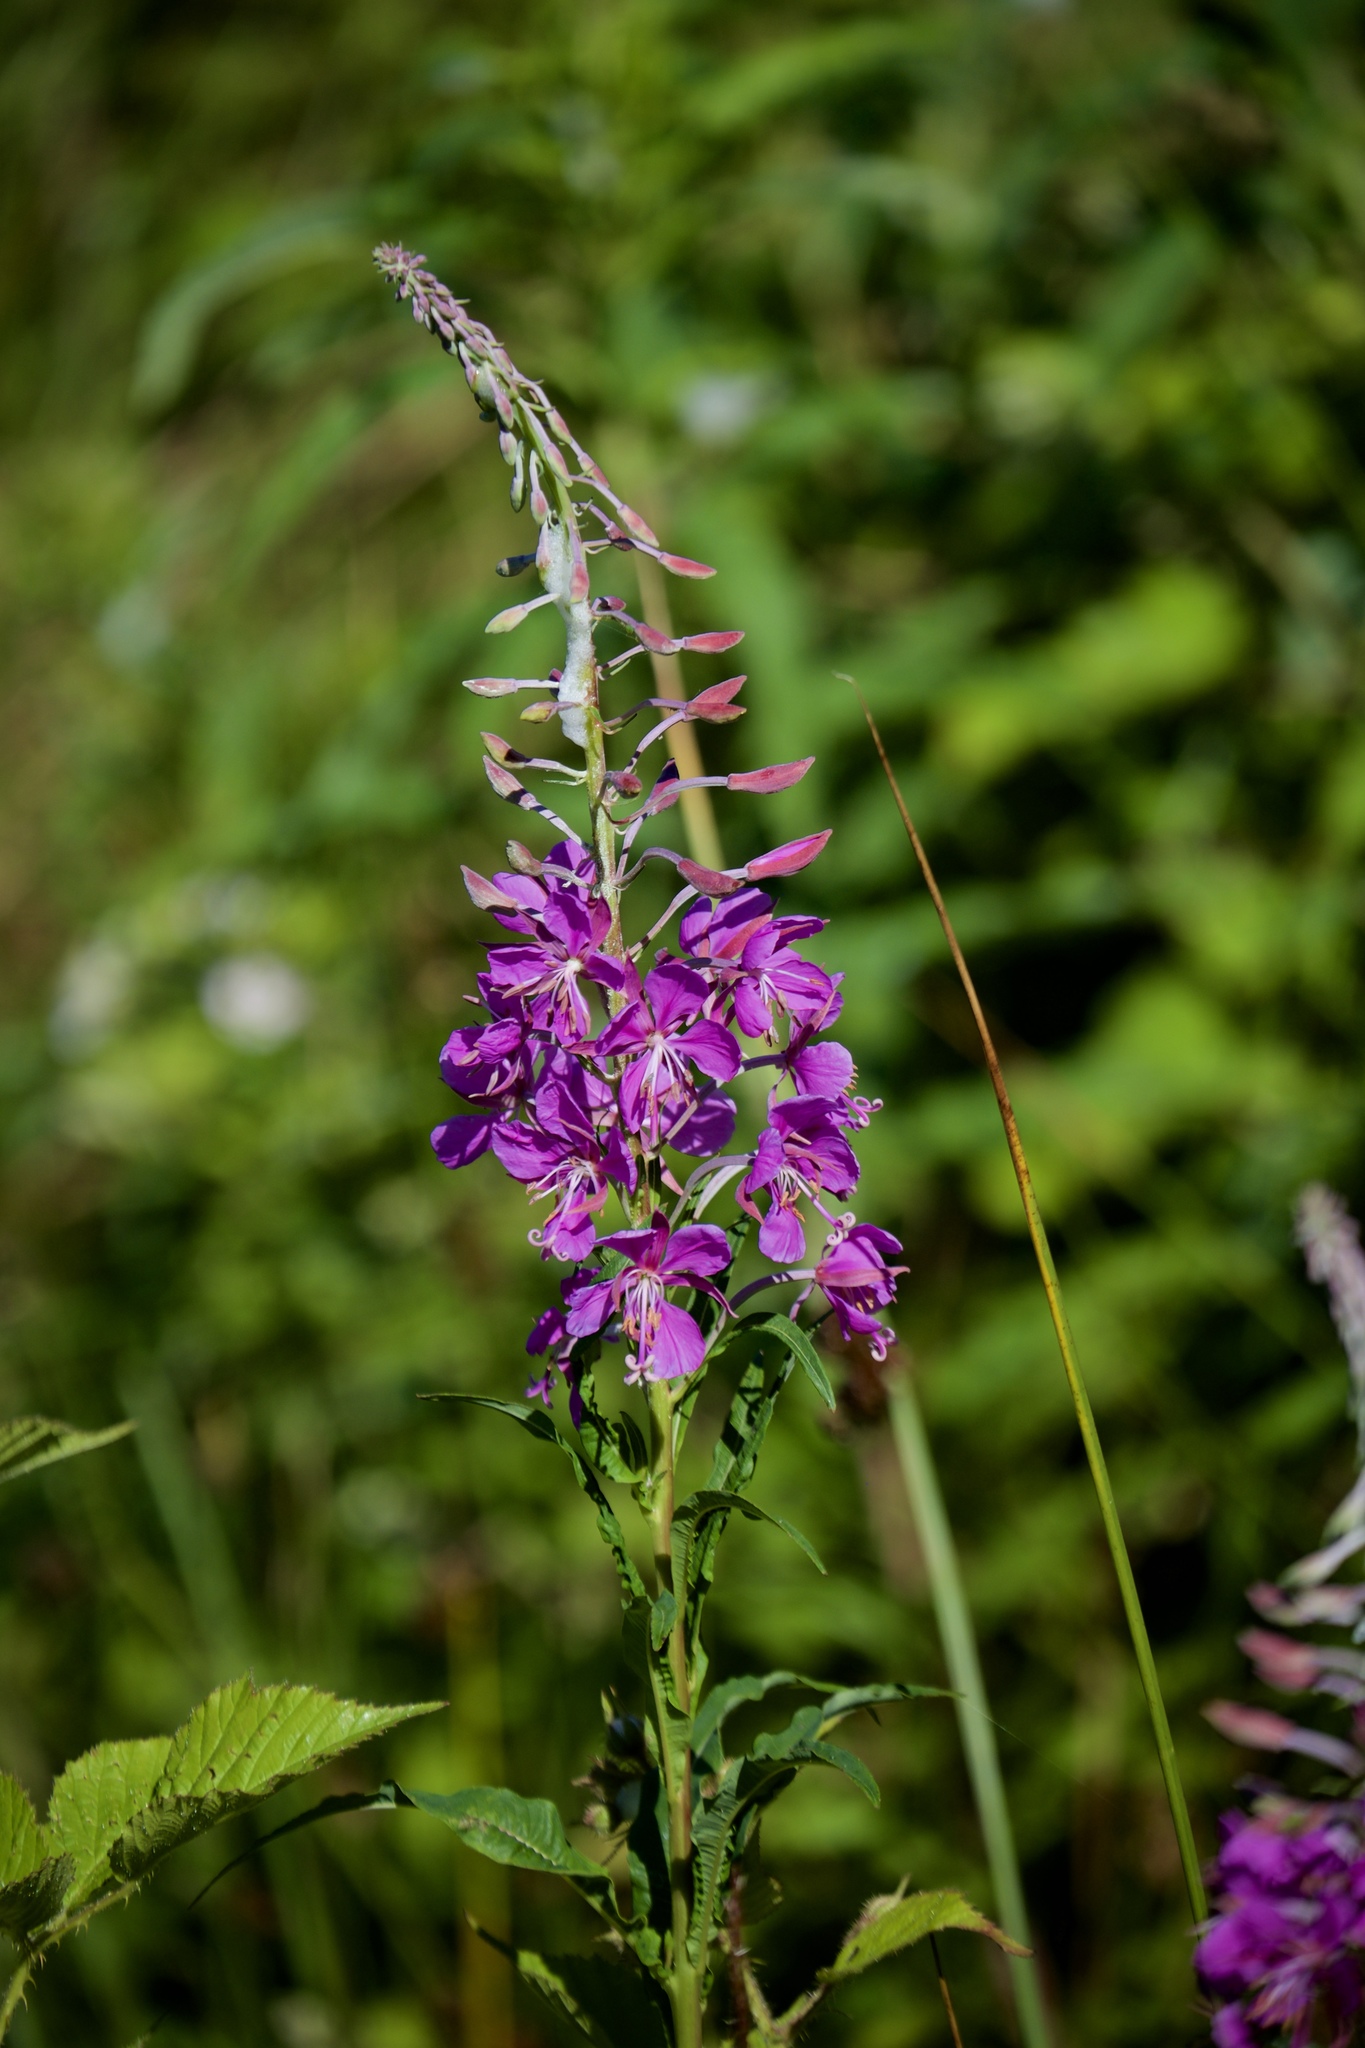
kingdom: Plantae
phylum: Tracheophyta
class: Magnoliopsida
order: Myrtales
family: Onagraceae
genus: Chamaenerion
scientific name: Chamaenerion angustifolium
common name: Fireweed
